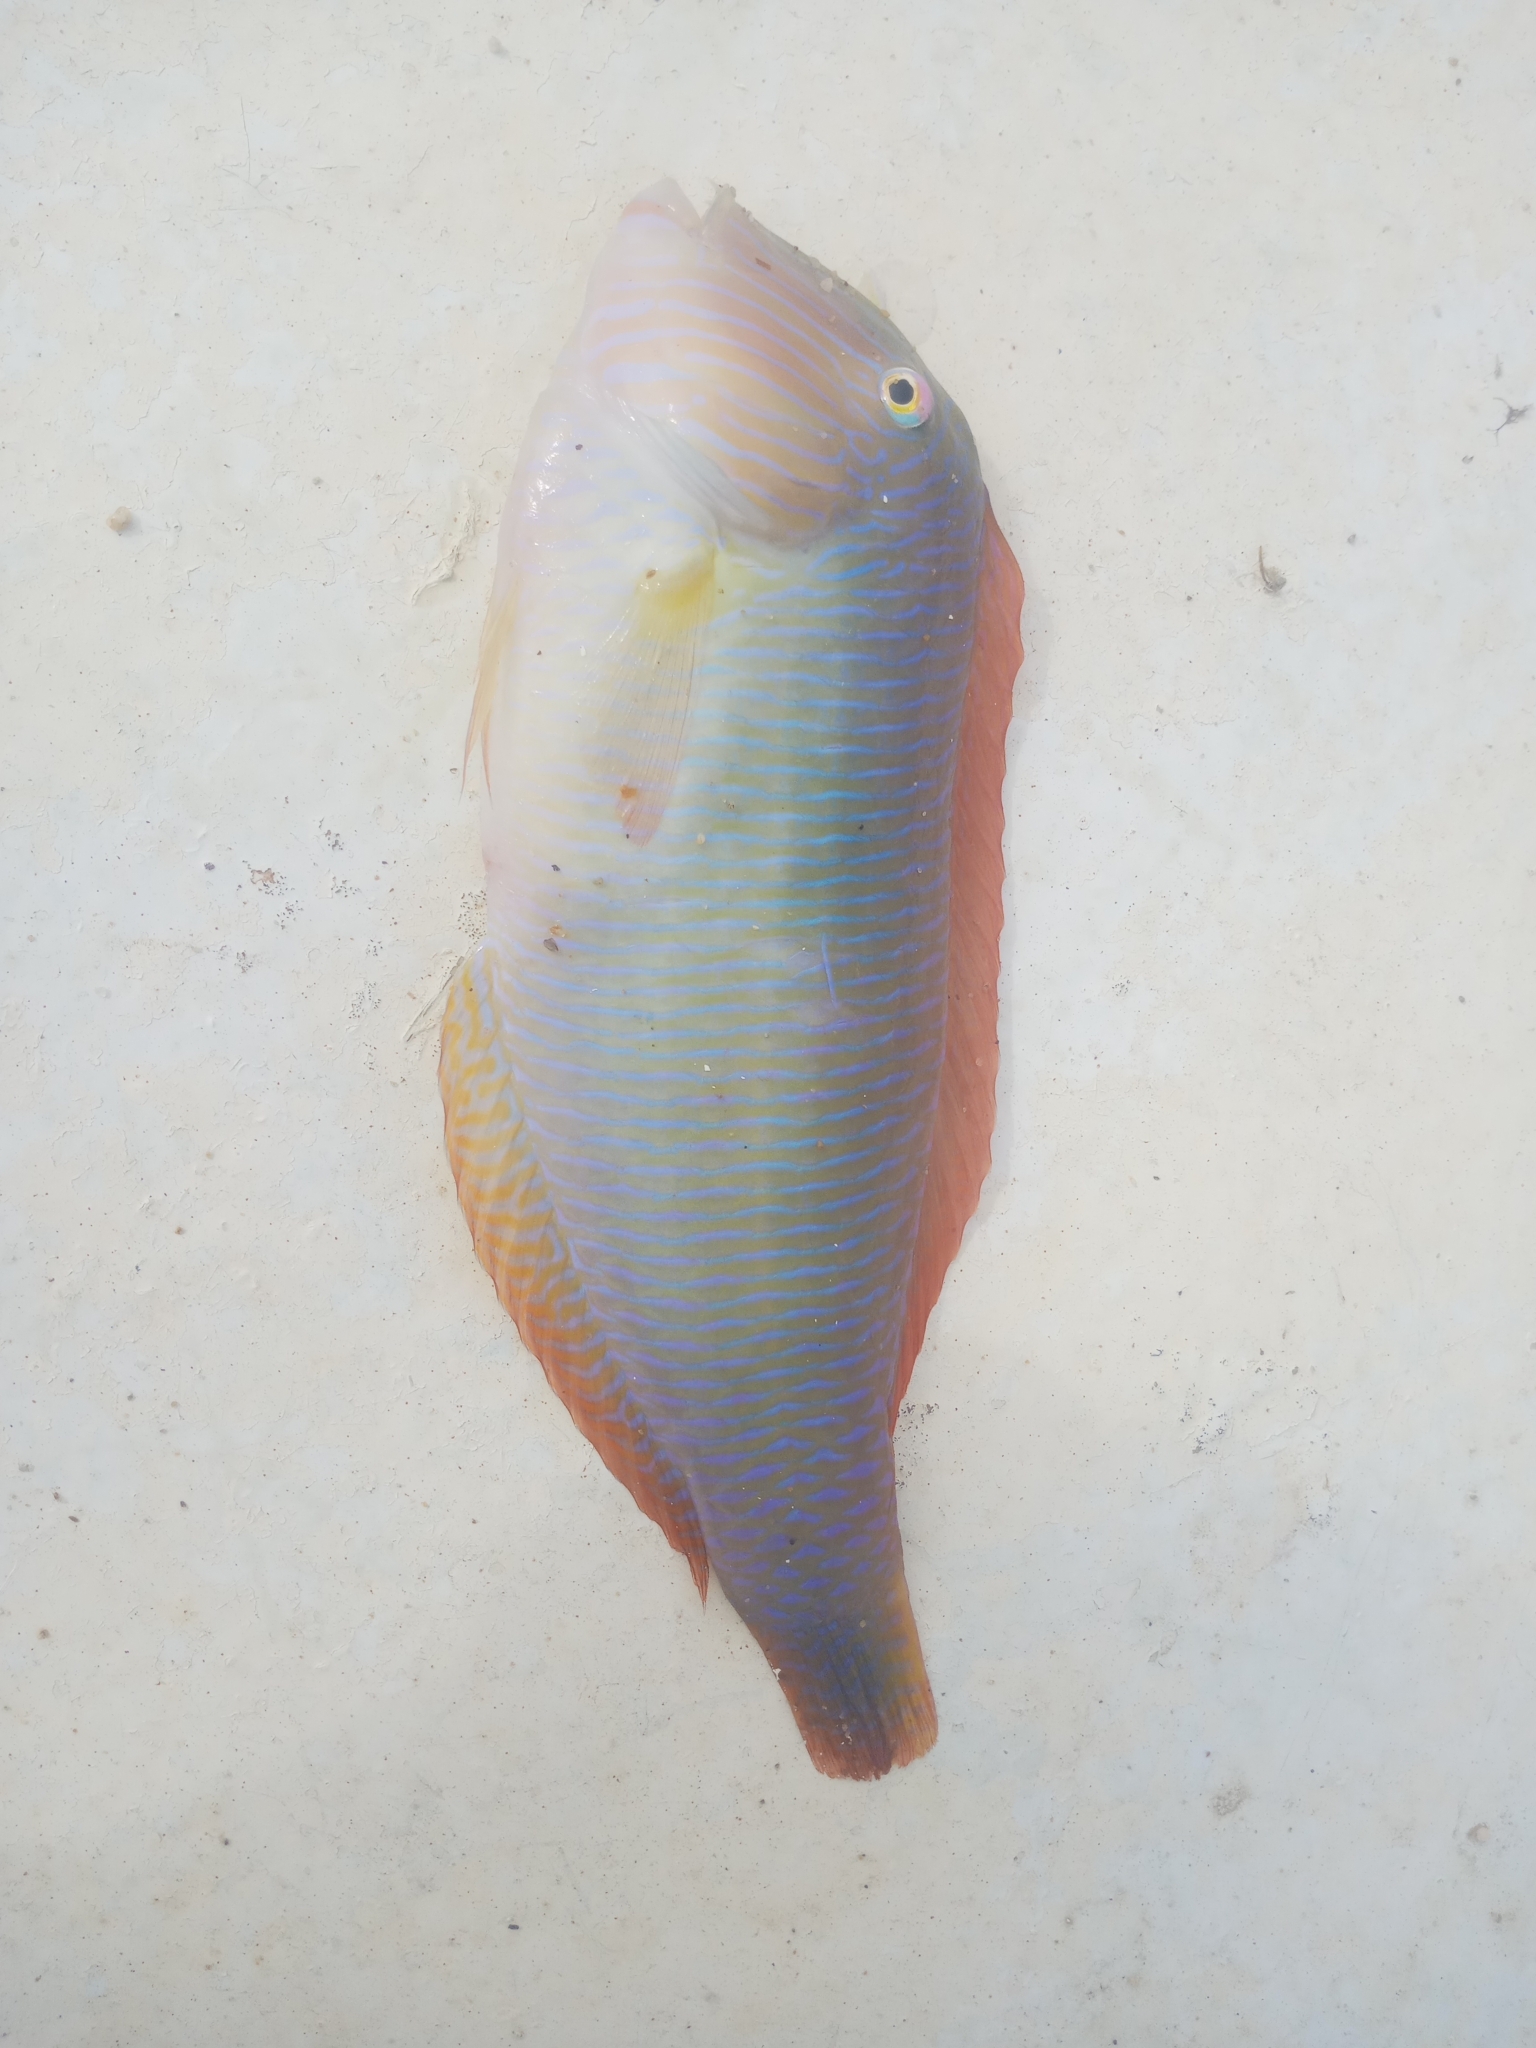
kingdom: Animalia
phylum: Chordata
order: Perciformes
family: Labridae
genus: Xyrichtys
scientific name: Xyrichtys novacula
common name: Pearly razorfish
